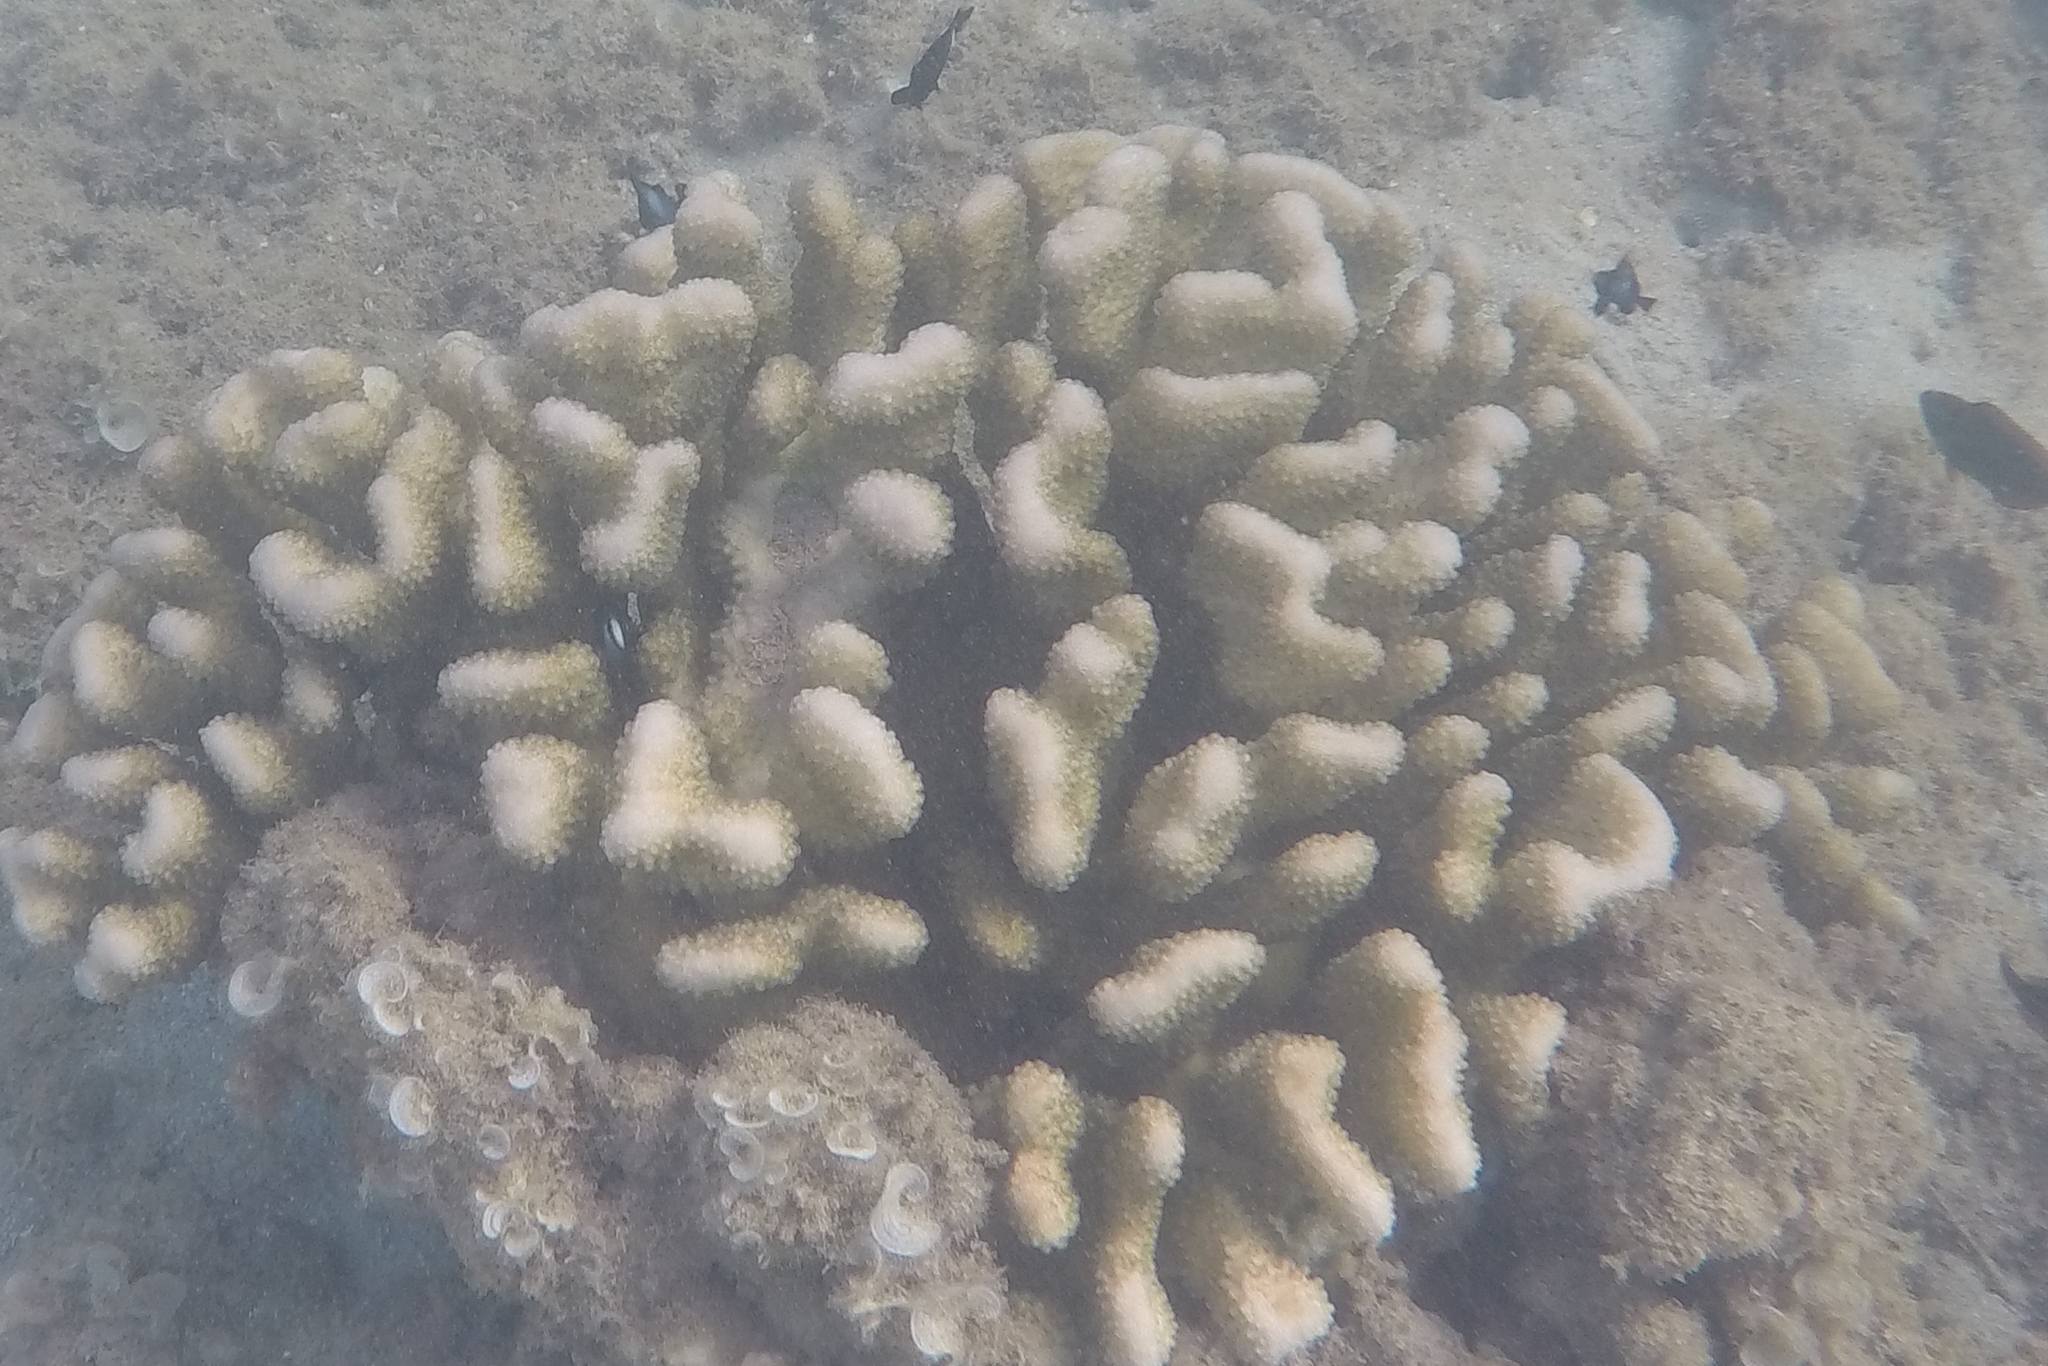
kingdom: Animalia
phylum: Chordata
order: Perciformes
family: Pomacentridae
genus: Dascyllus
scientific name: Dascyllus albisella
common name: Hawaiian dascyllus
